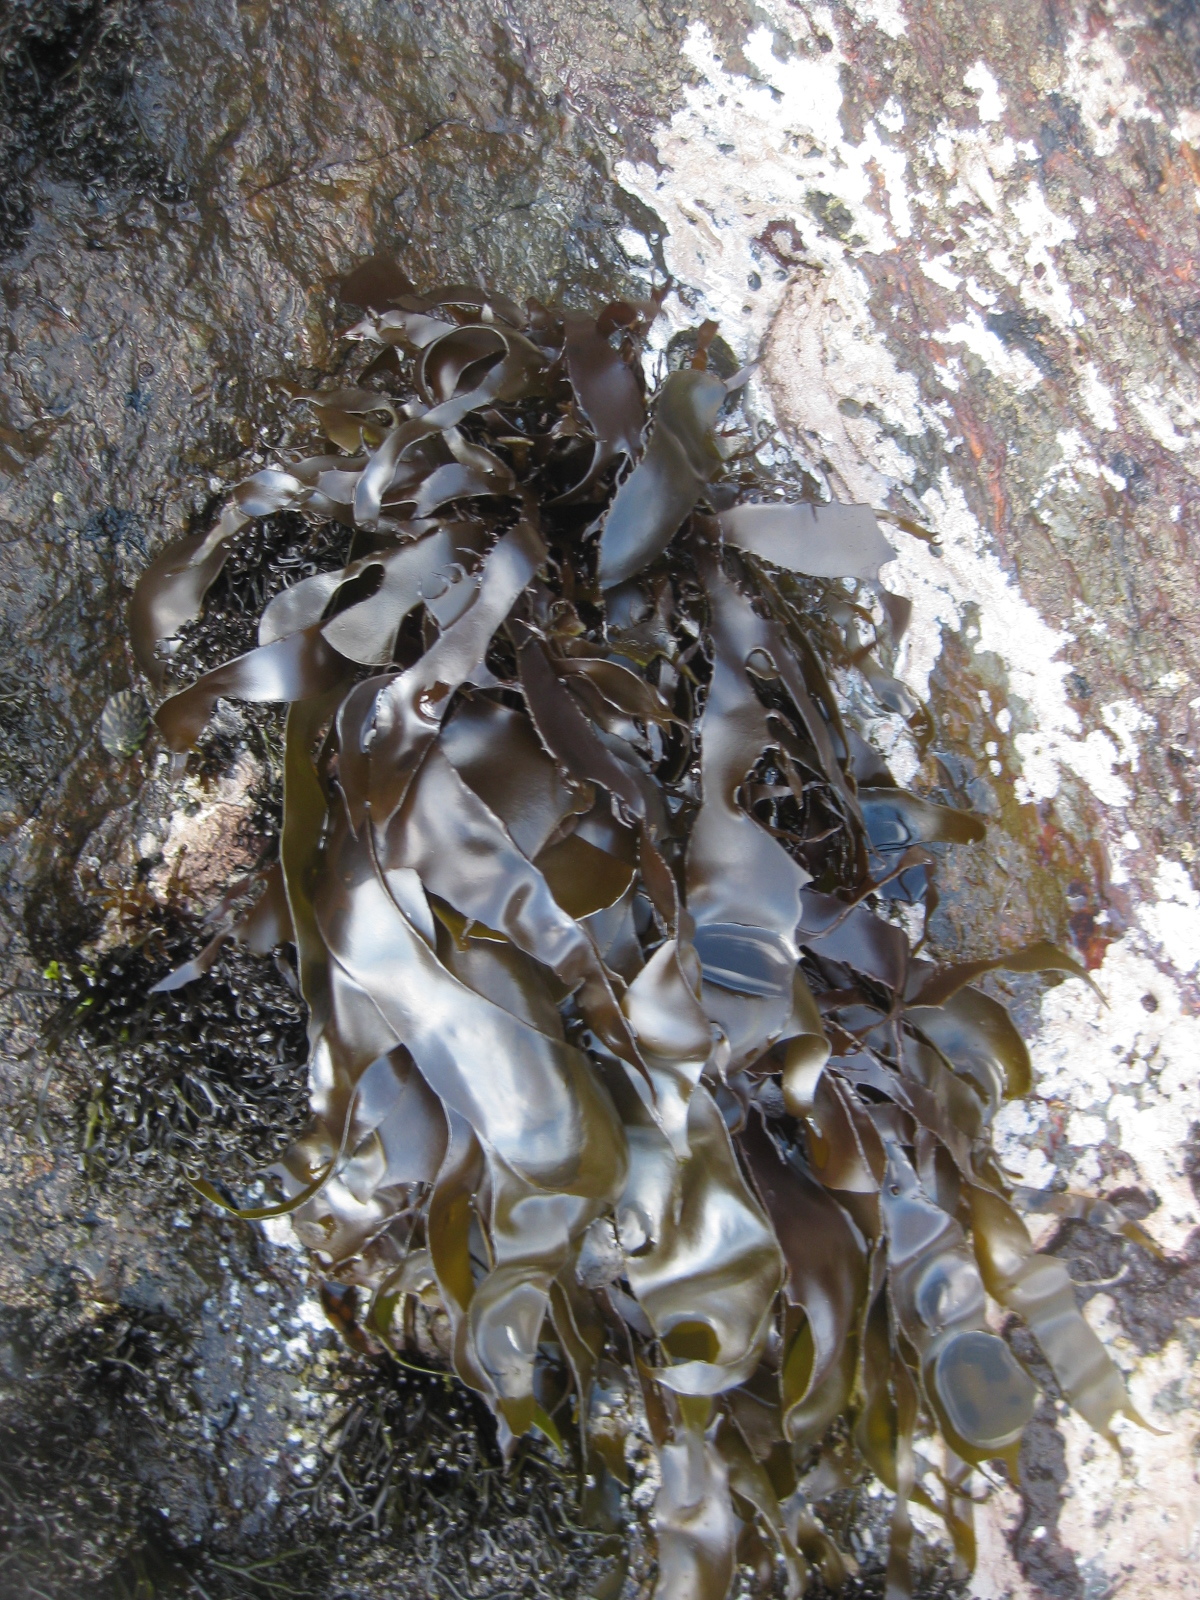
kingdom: Plantae
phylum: Rhodophyta
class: Florideophyceae
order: Halymeniales
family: Halymeniaceae
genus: Pachymenia
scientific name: Pachymenia lusoria
